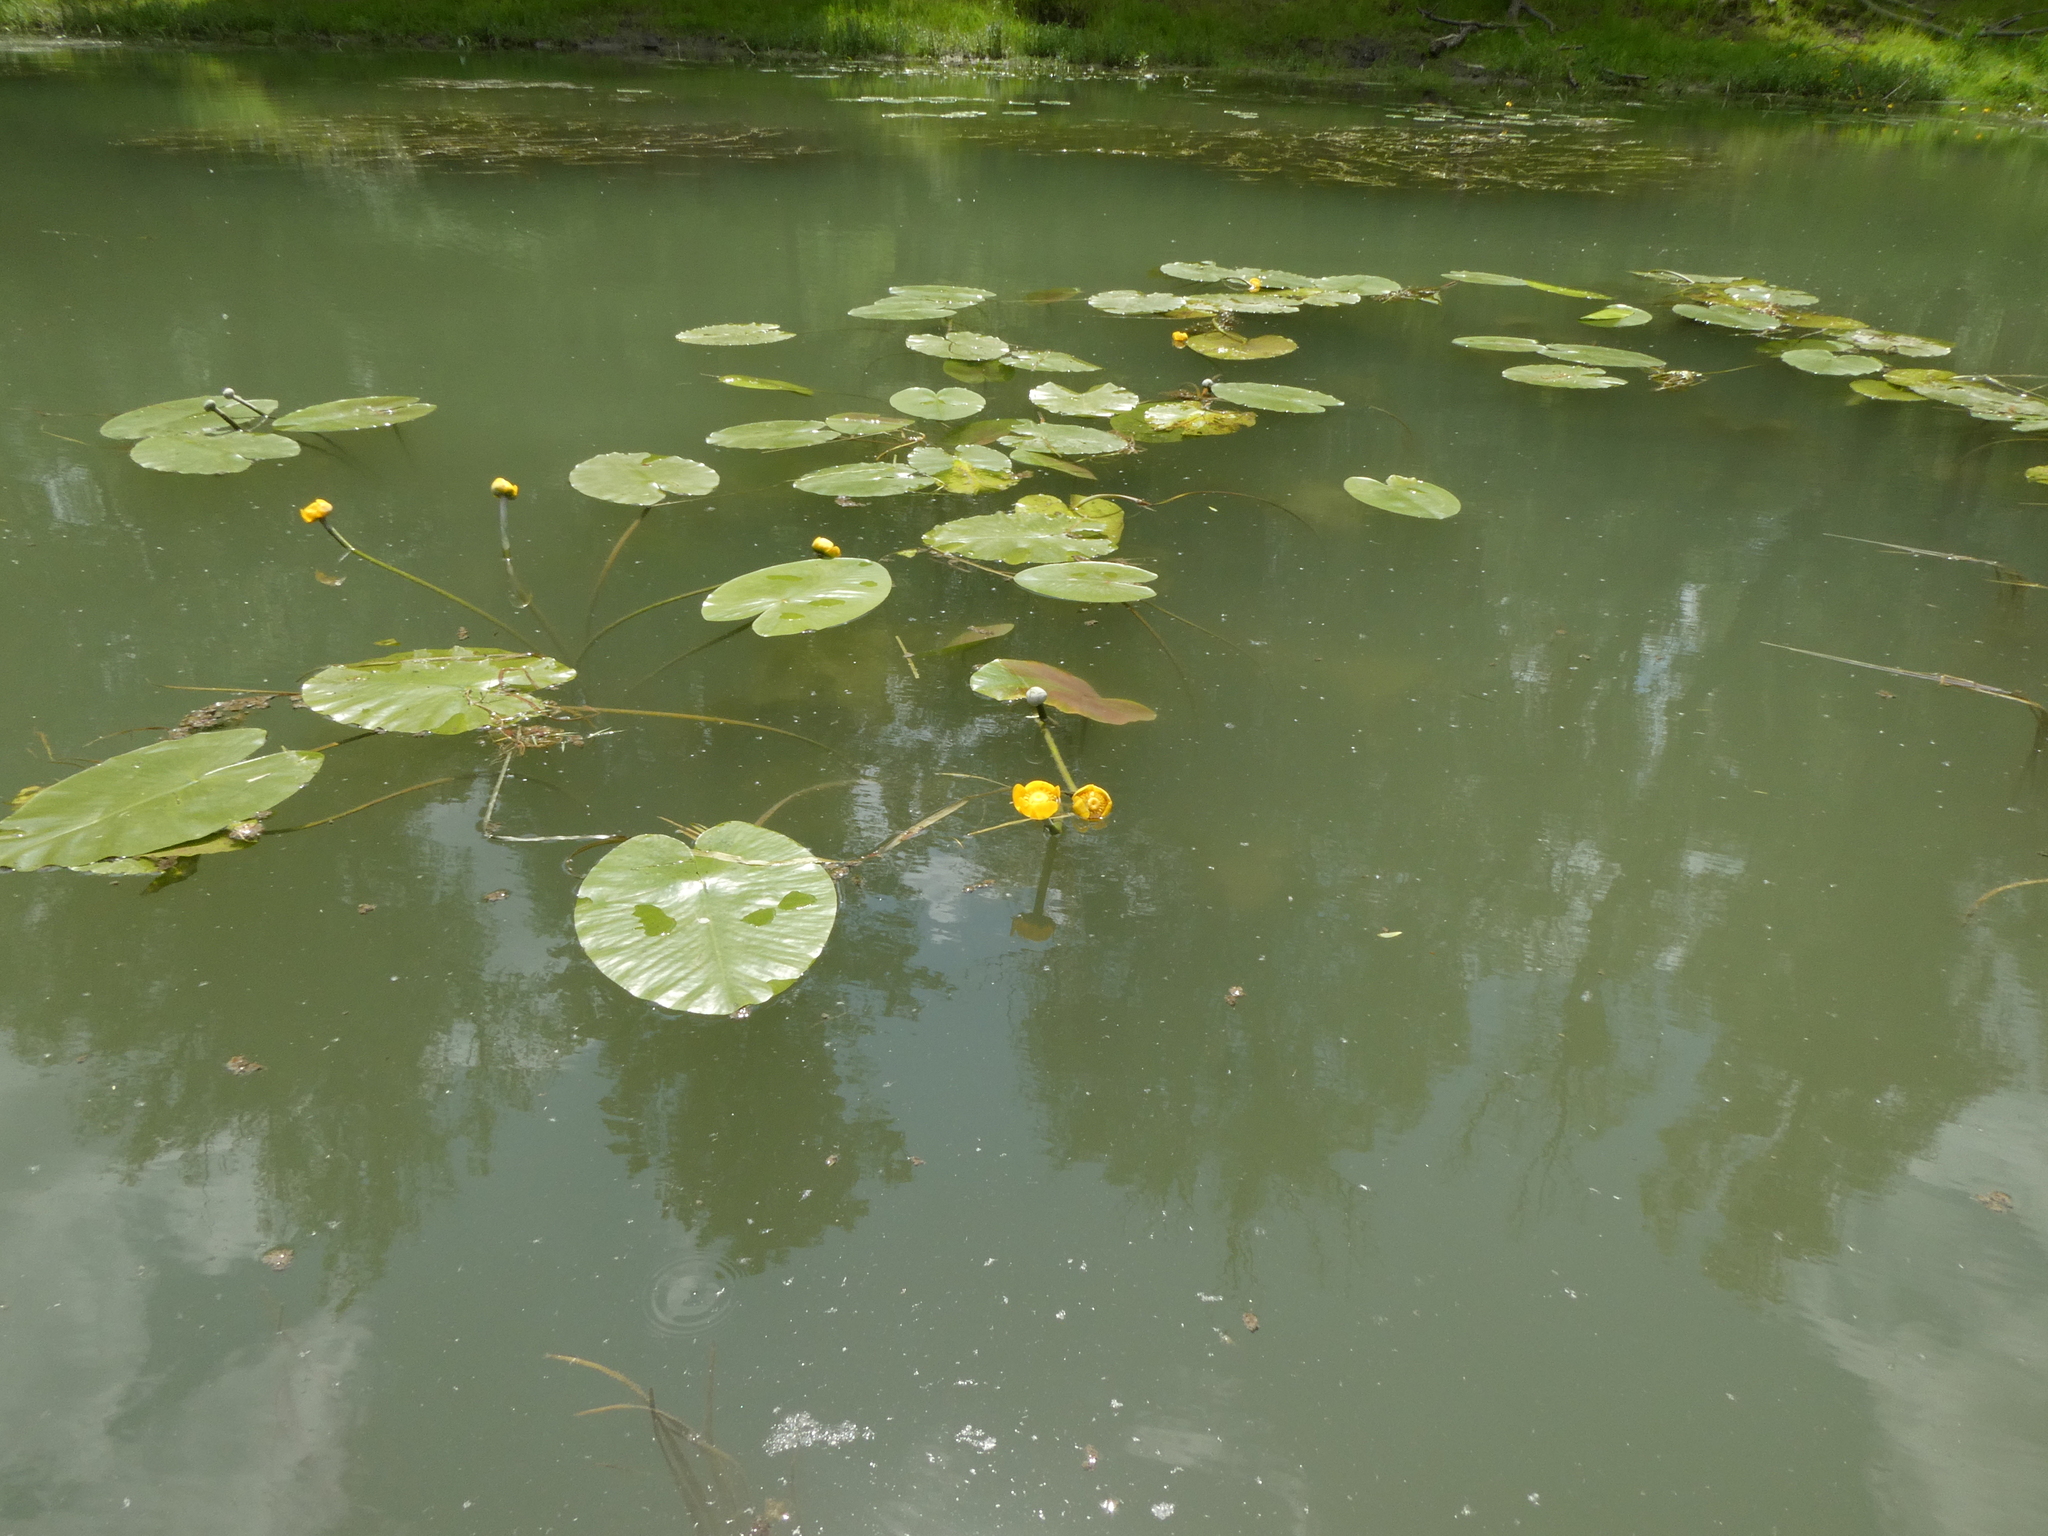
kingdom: Plantae
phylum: Tracheophyta
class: Magnoliopsida
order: Nymphaeales
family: Nymphaeaceae
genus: Nuphar
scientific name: Nuphar lutea
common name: Yellow water-lily
